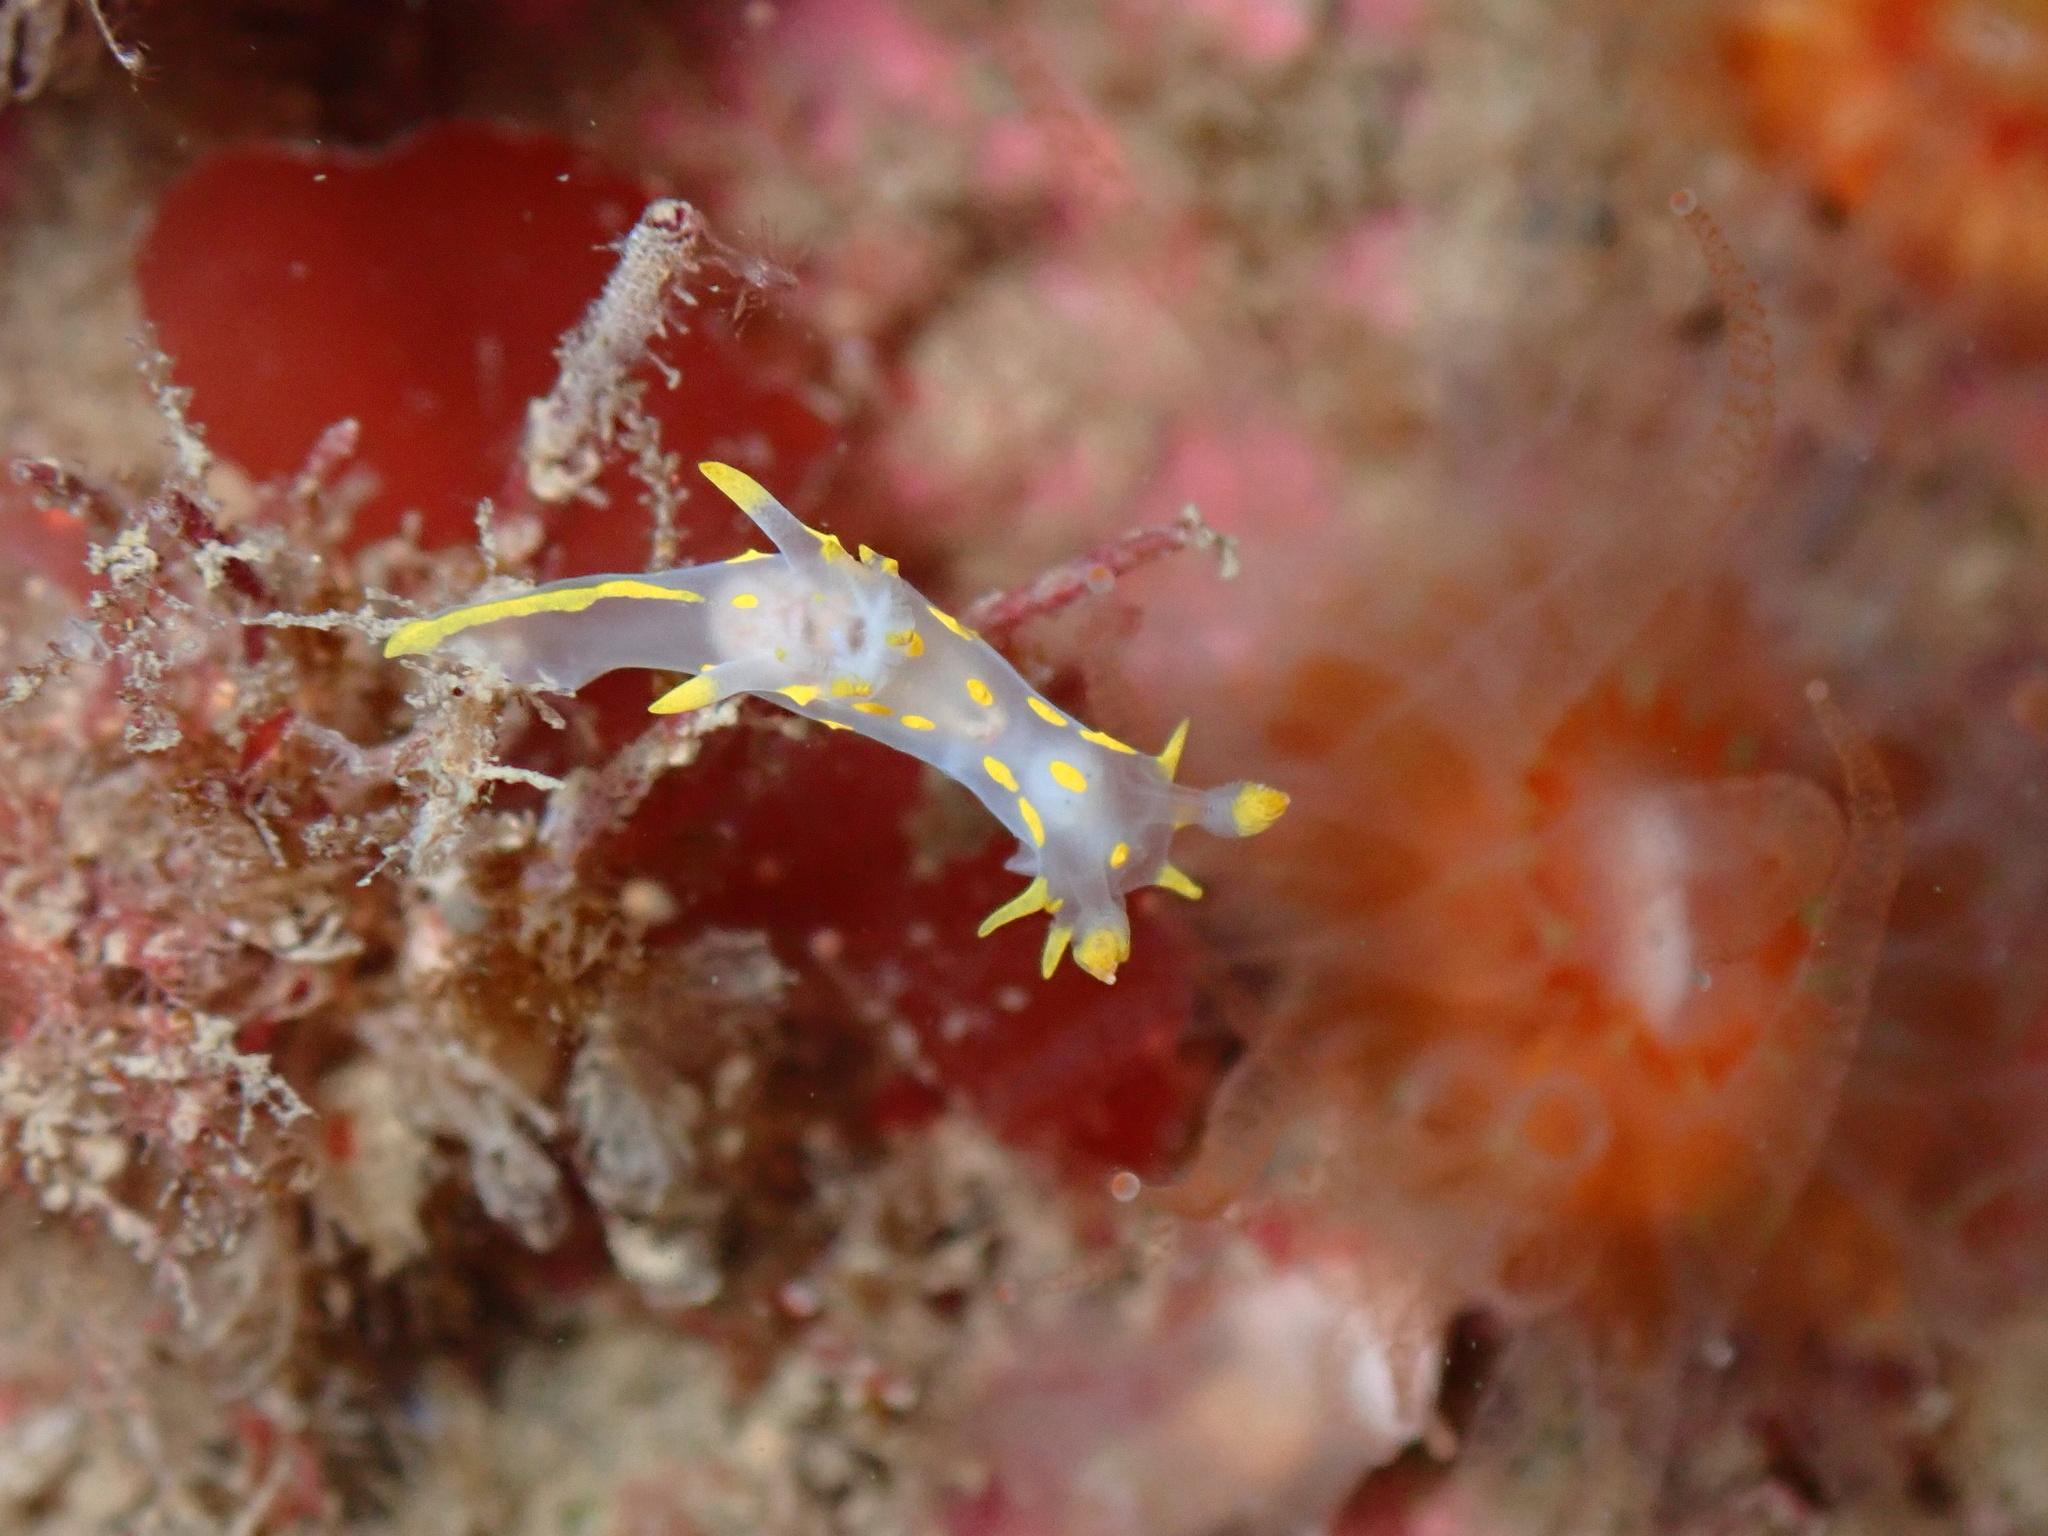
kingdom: Animalia
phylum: Mollusca
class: Gastropoda
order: Nudibranchia
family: Polyceridae
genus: Polycera
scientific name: Polycera quadrilineata
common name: Four-striped polycera
